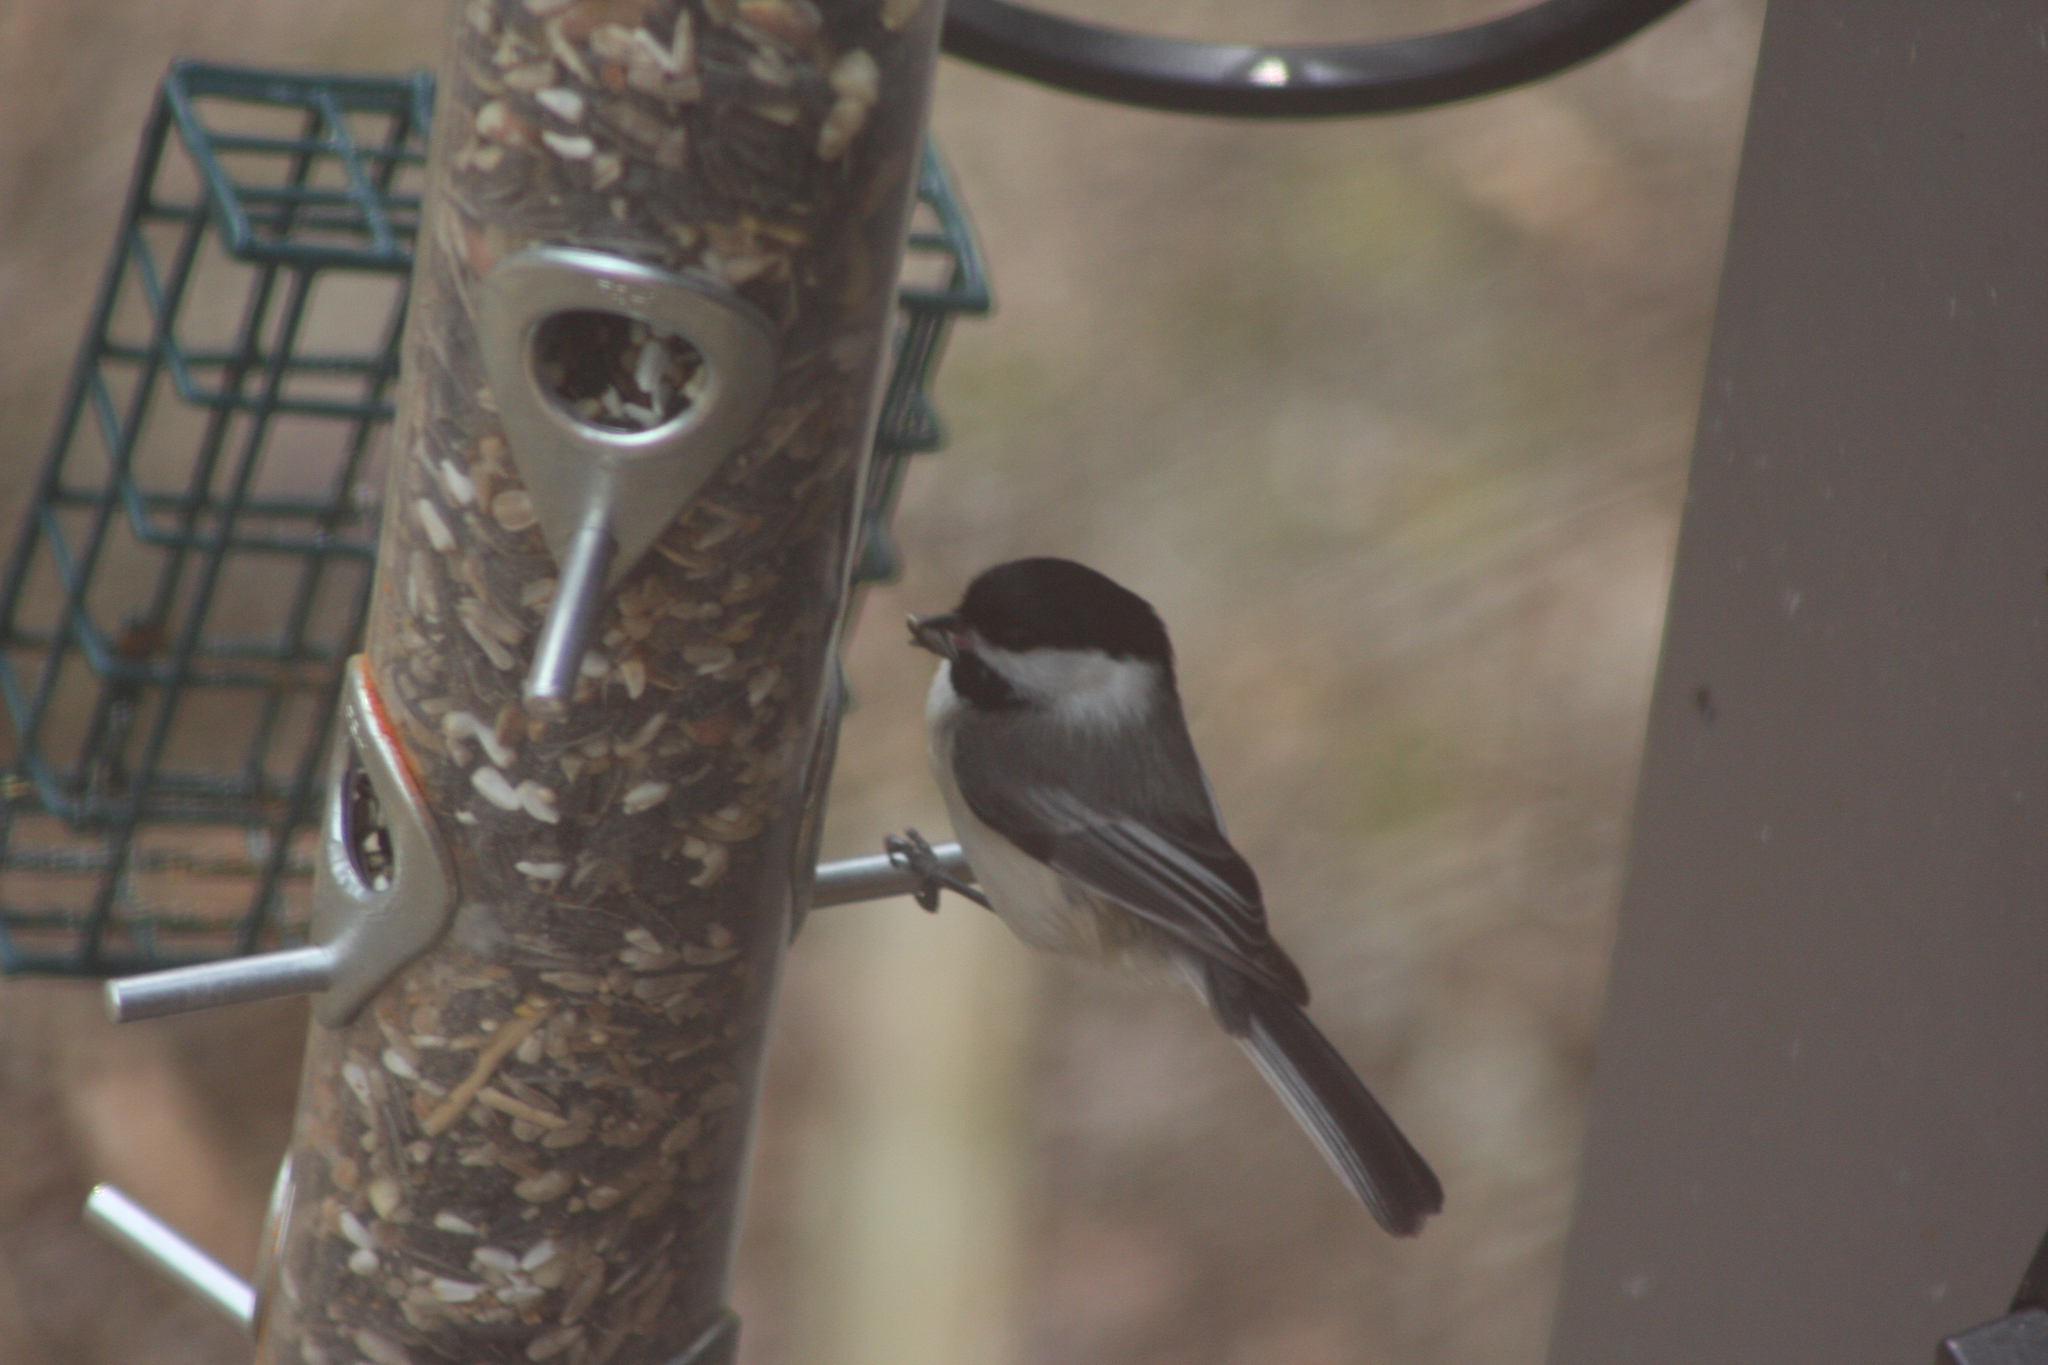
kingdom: Animalia
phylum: Chordata
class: Aves
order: Passeriformes
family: Paridae
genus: Poecile
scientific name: Poecile atricapillus
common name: Black-capped chickadee
